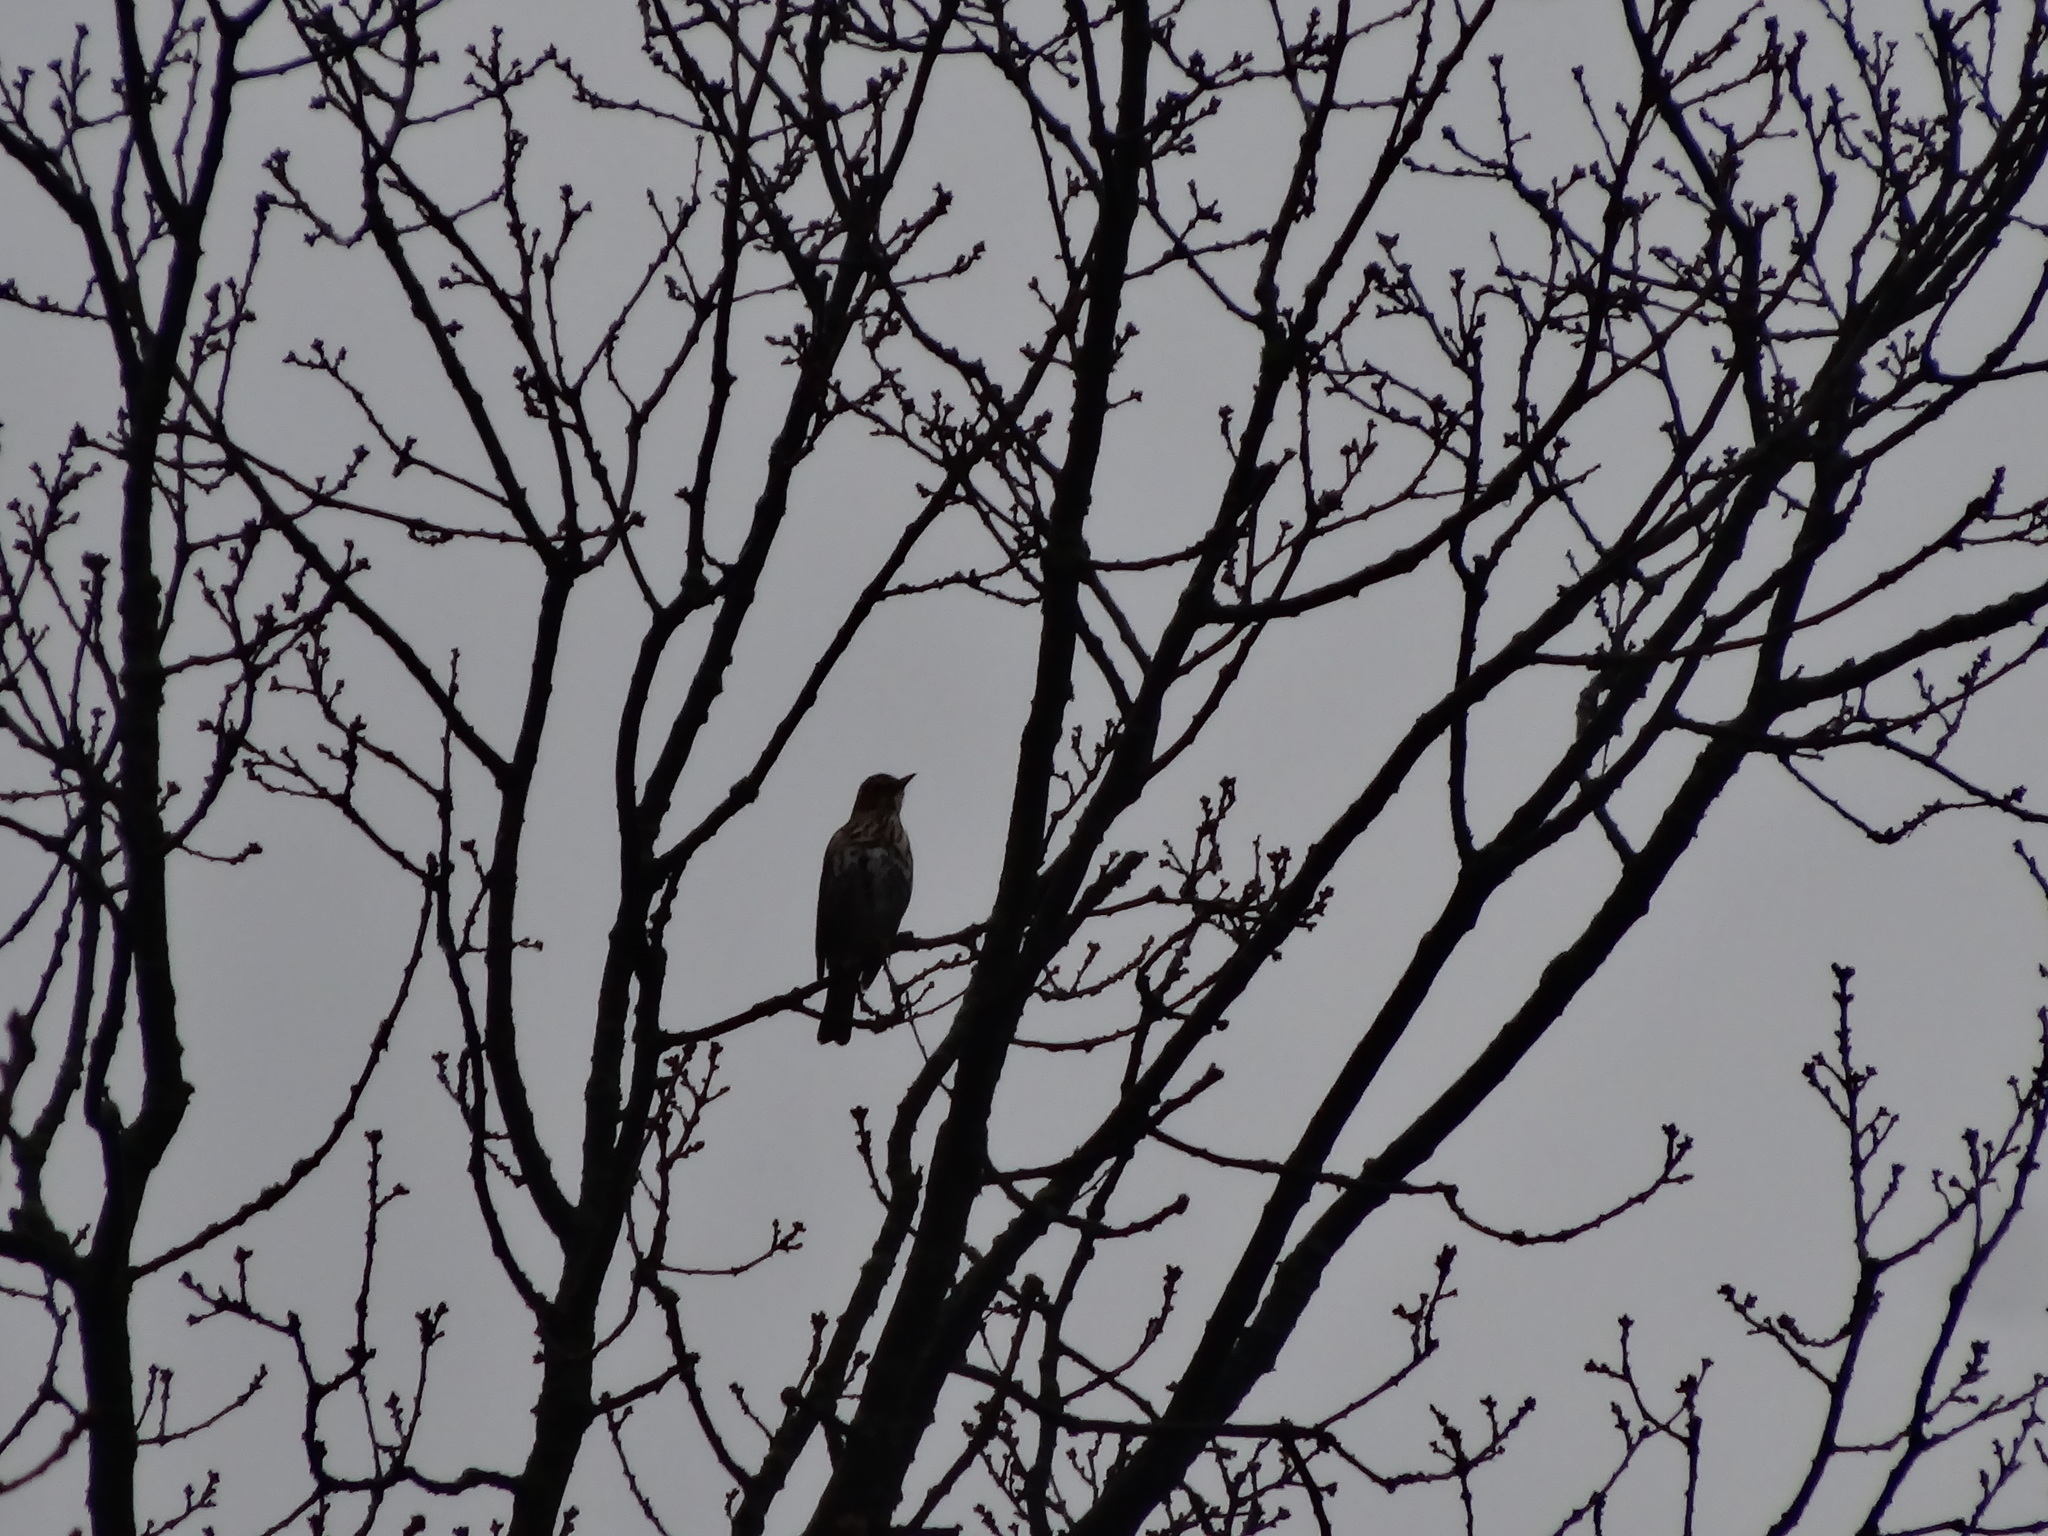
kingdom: Animalia
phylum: Chordata
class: Aves
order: Passeriformes
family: Turdidae
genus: Turdus
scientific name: Turdus philomelos
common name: Song thrush
